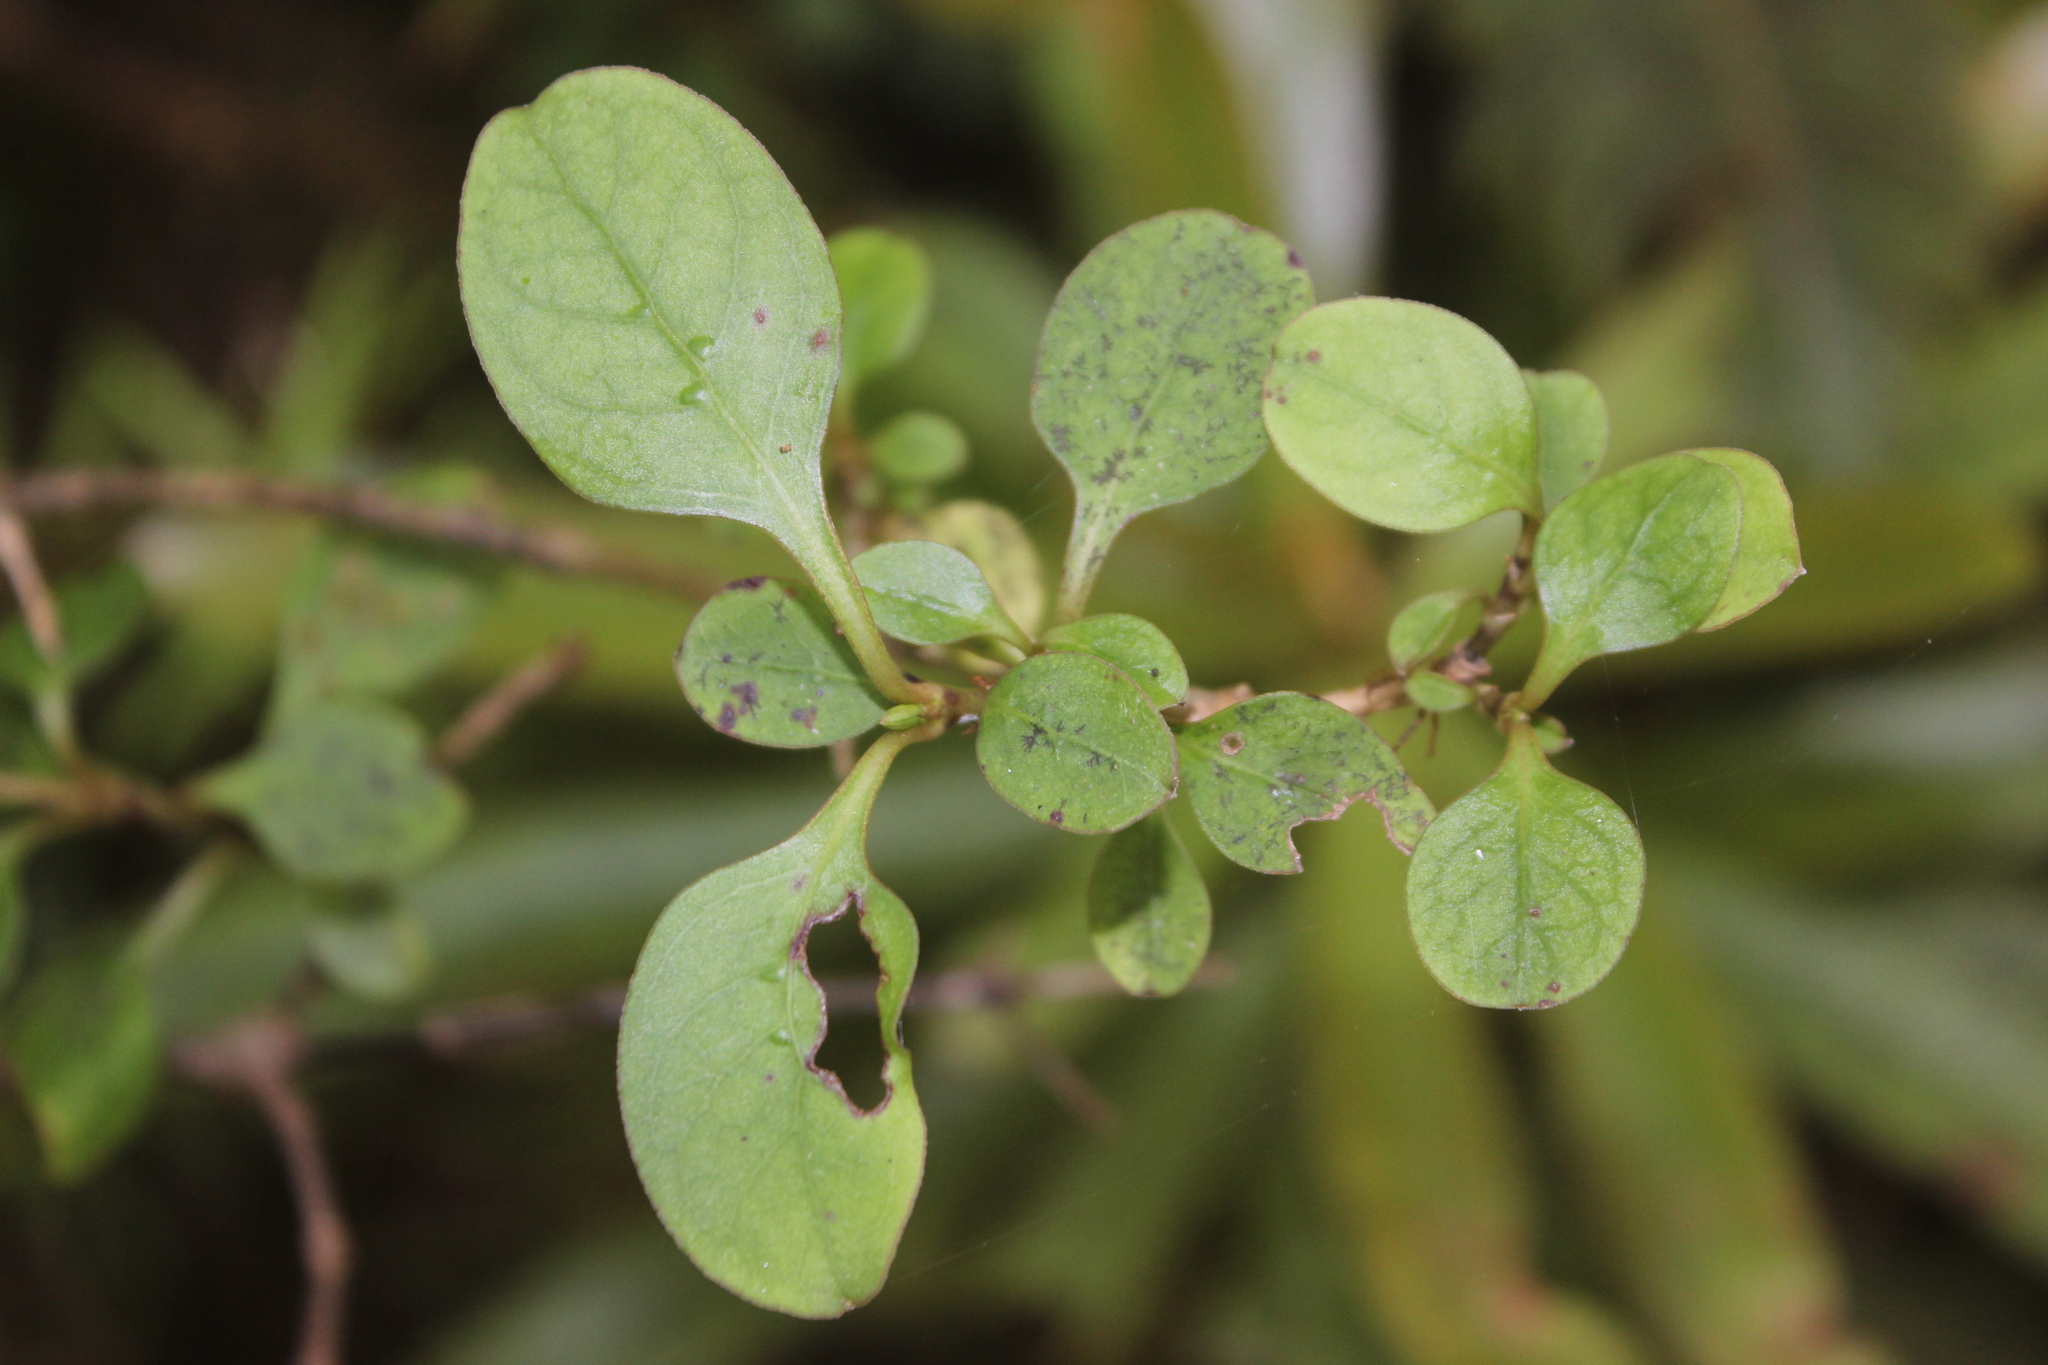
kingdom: Plantae
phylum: Tracheophyta
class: Magnoliopsida
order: Gentianales
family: Rubiaceae
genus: Coprosma
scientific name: Coprosma foetidissima
